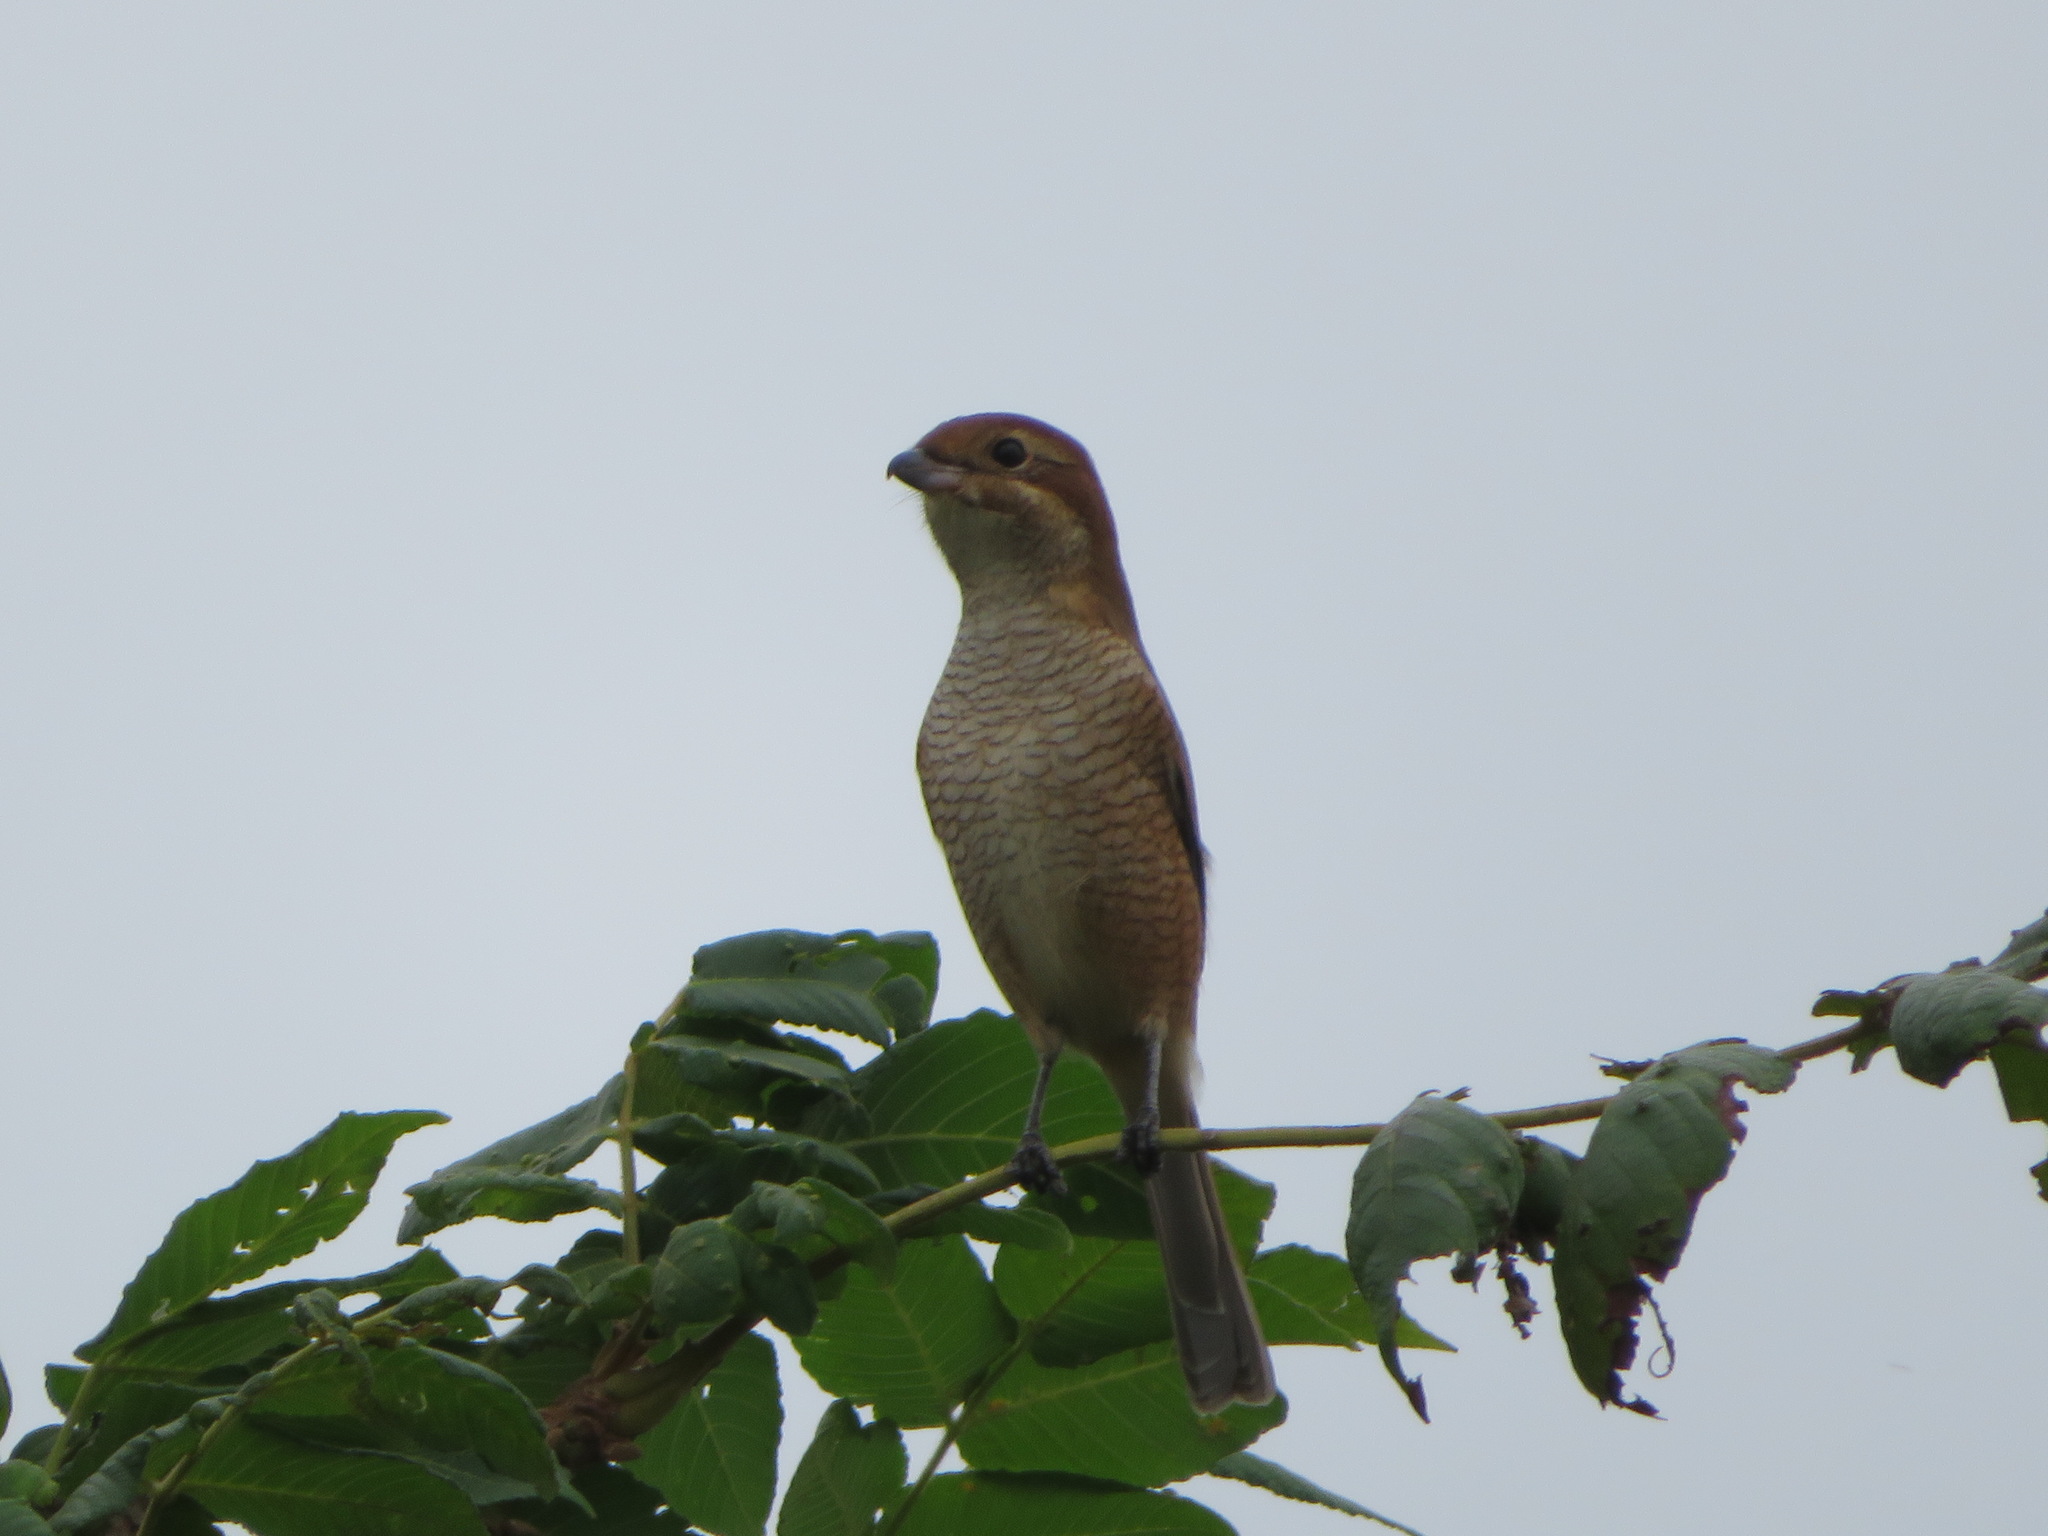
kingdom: Animalia
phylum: Chordata
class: Aves
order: Passeriformes
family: Laniidae
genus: Lanius
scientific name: Lanius bucephalus
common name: Bull-headed shrike
